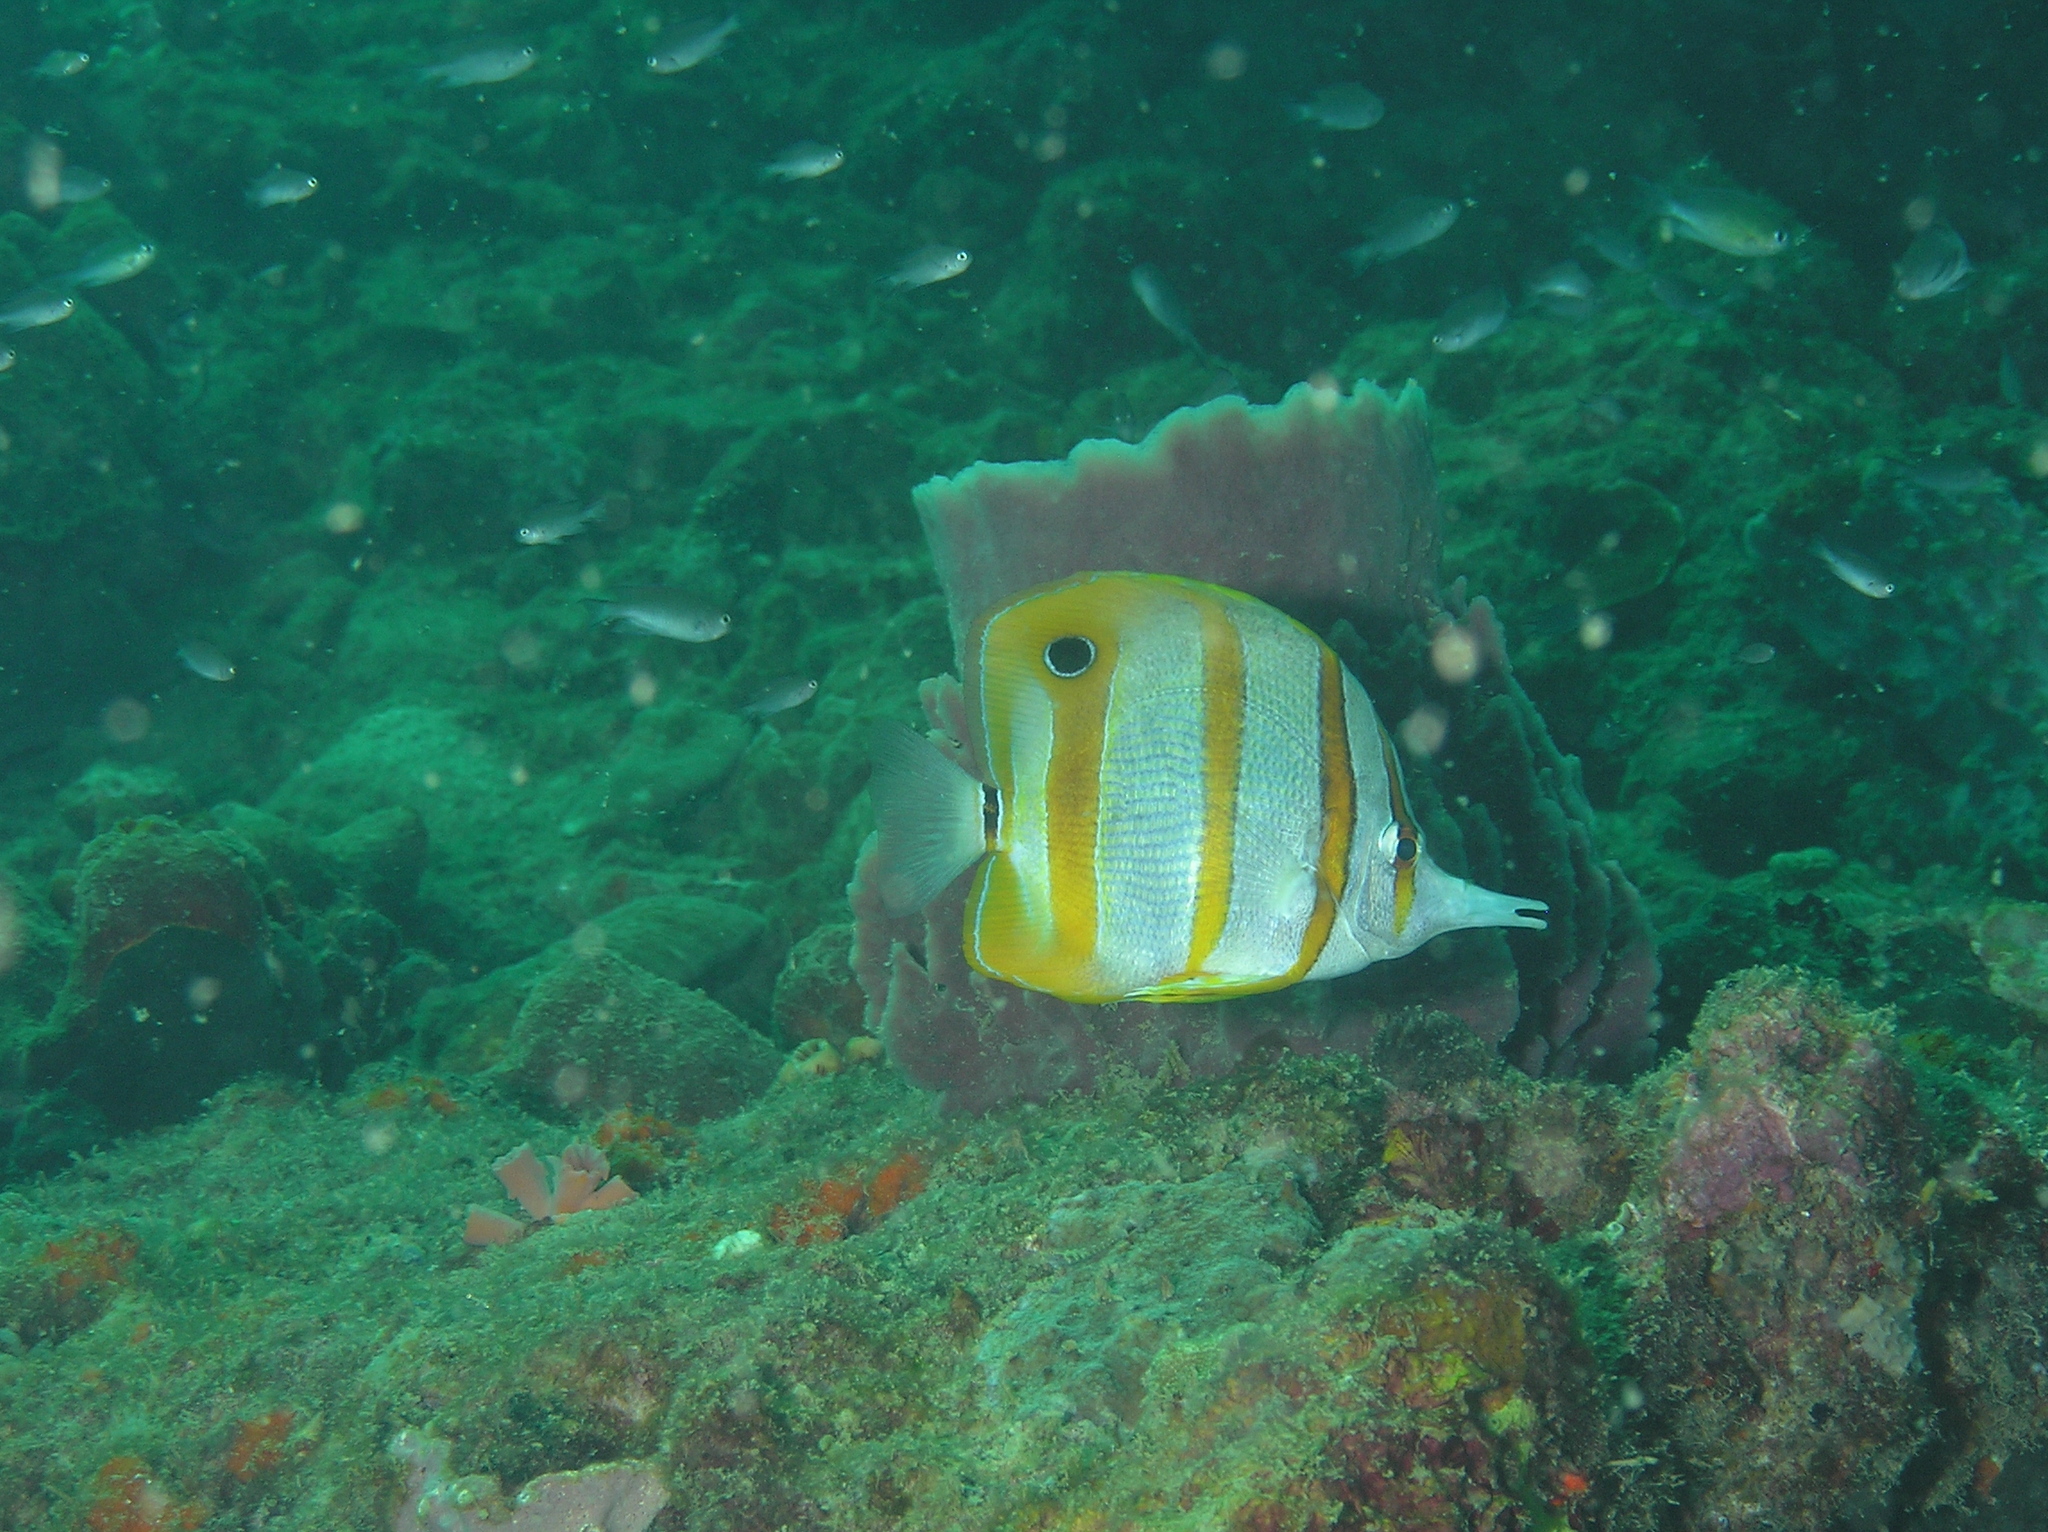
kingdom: Animalia
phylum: Chordata
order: Perciformes
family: Chaetodontidae
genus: Chelmon
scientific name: Chelmon rostratus
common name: Beaked butterflyfish
